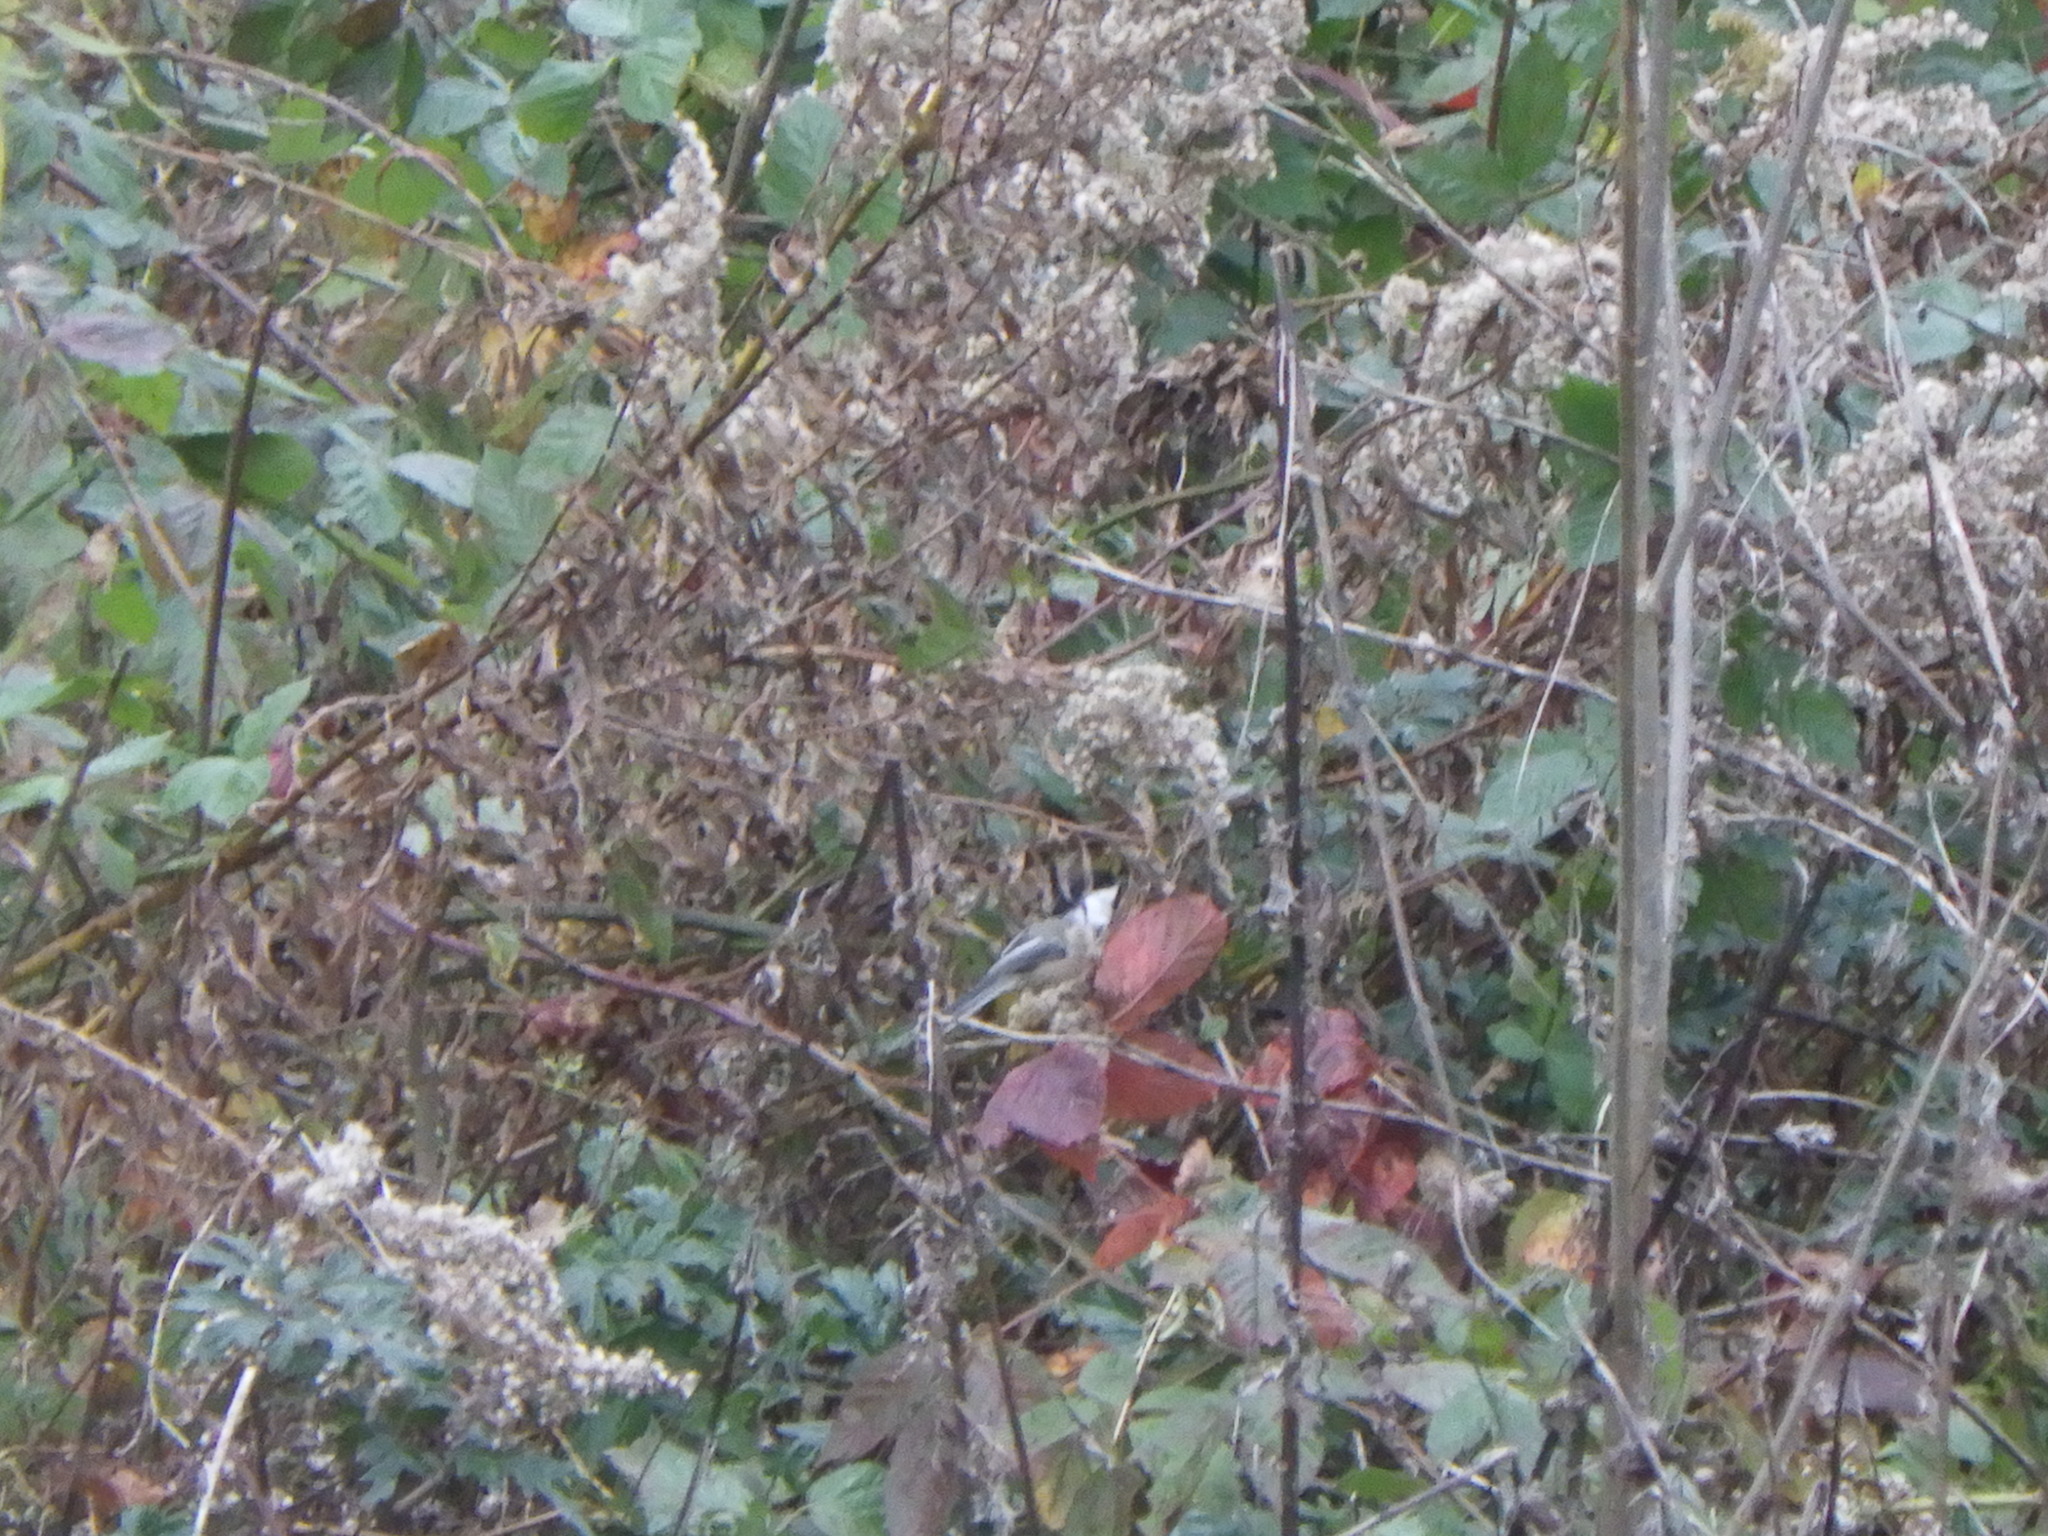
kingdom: Animalia
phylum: Chordata
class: Aves
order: Passeriformes
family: Paridae
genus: Poecile
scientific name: Poecile atricapillus
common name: Black-capped chickadee
